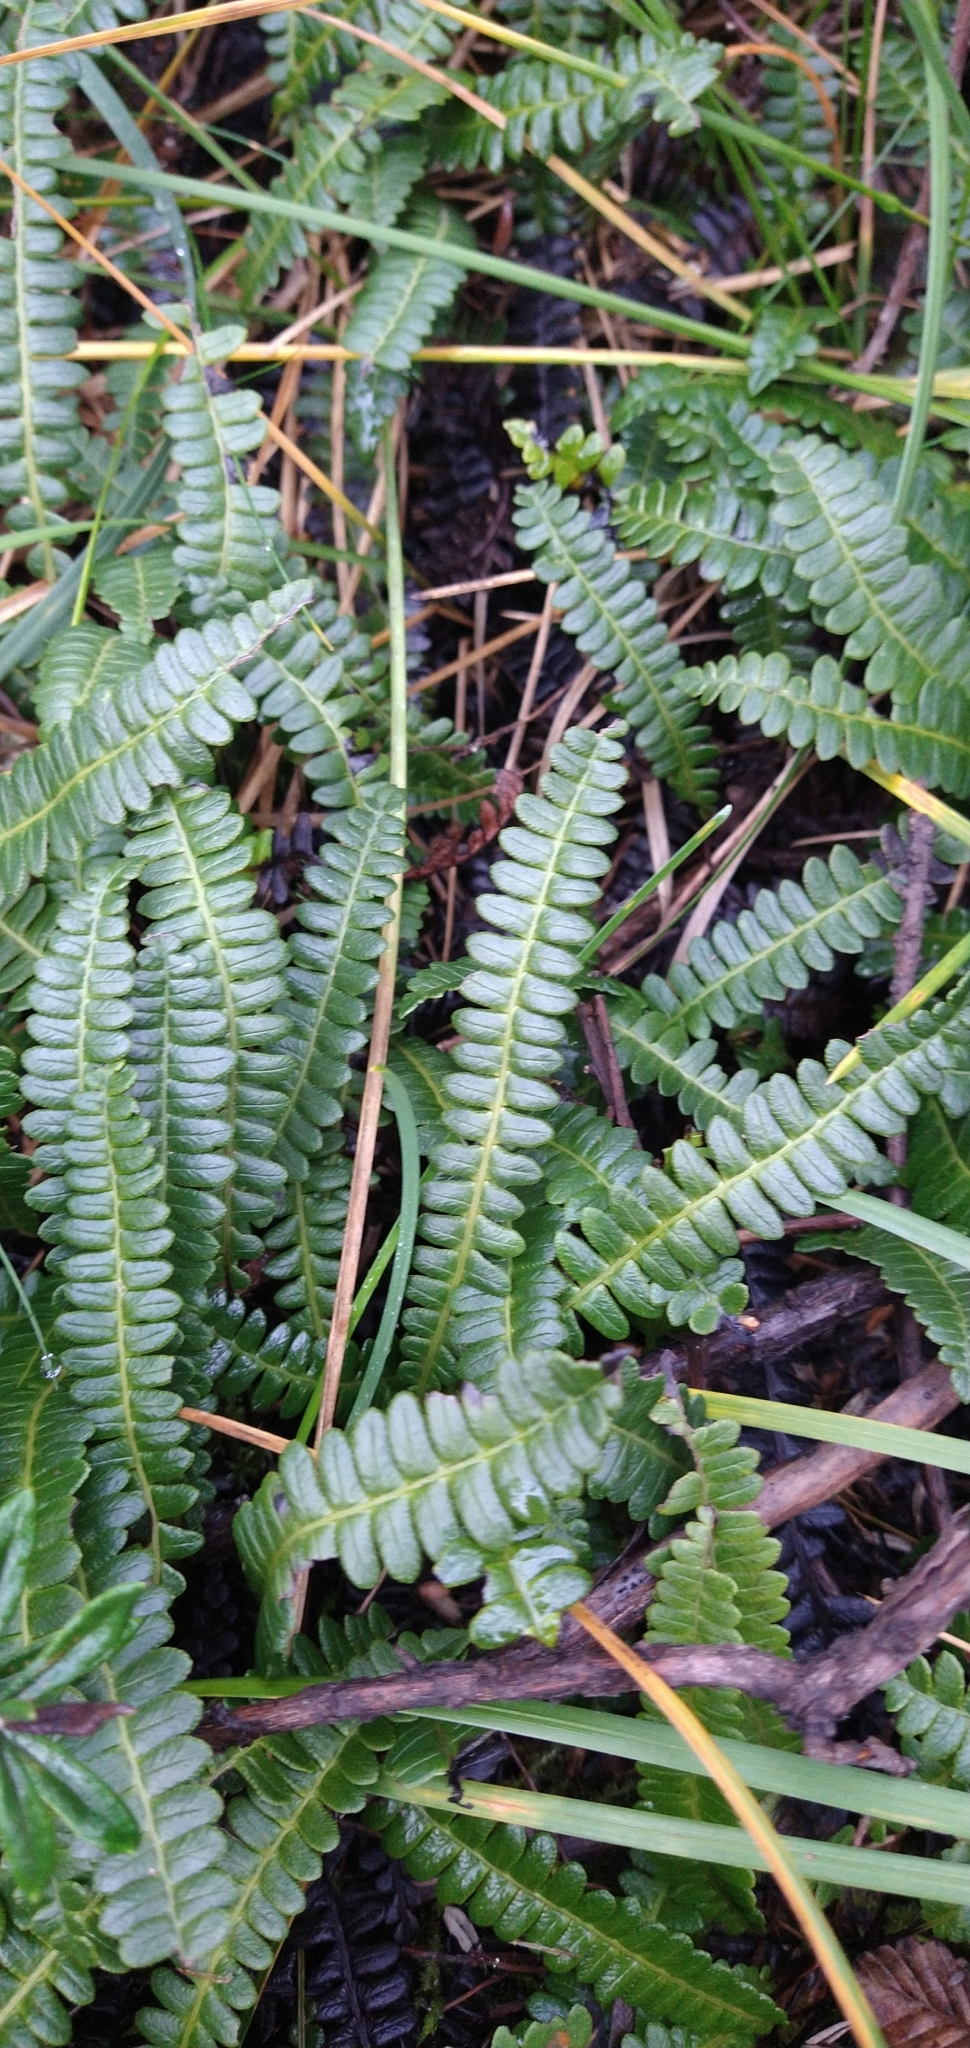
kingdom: Plantae
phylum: Tracheophyta
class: Polypodiopsida
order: Polypodiales
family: Blechnaceae
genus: Austroblechnum
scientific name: Austroblechnum penna-marina
